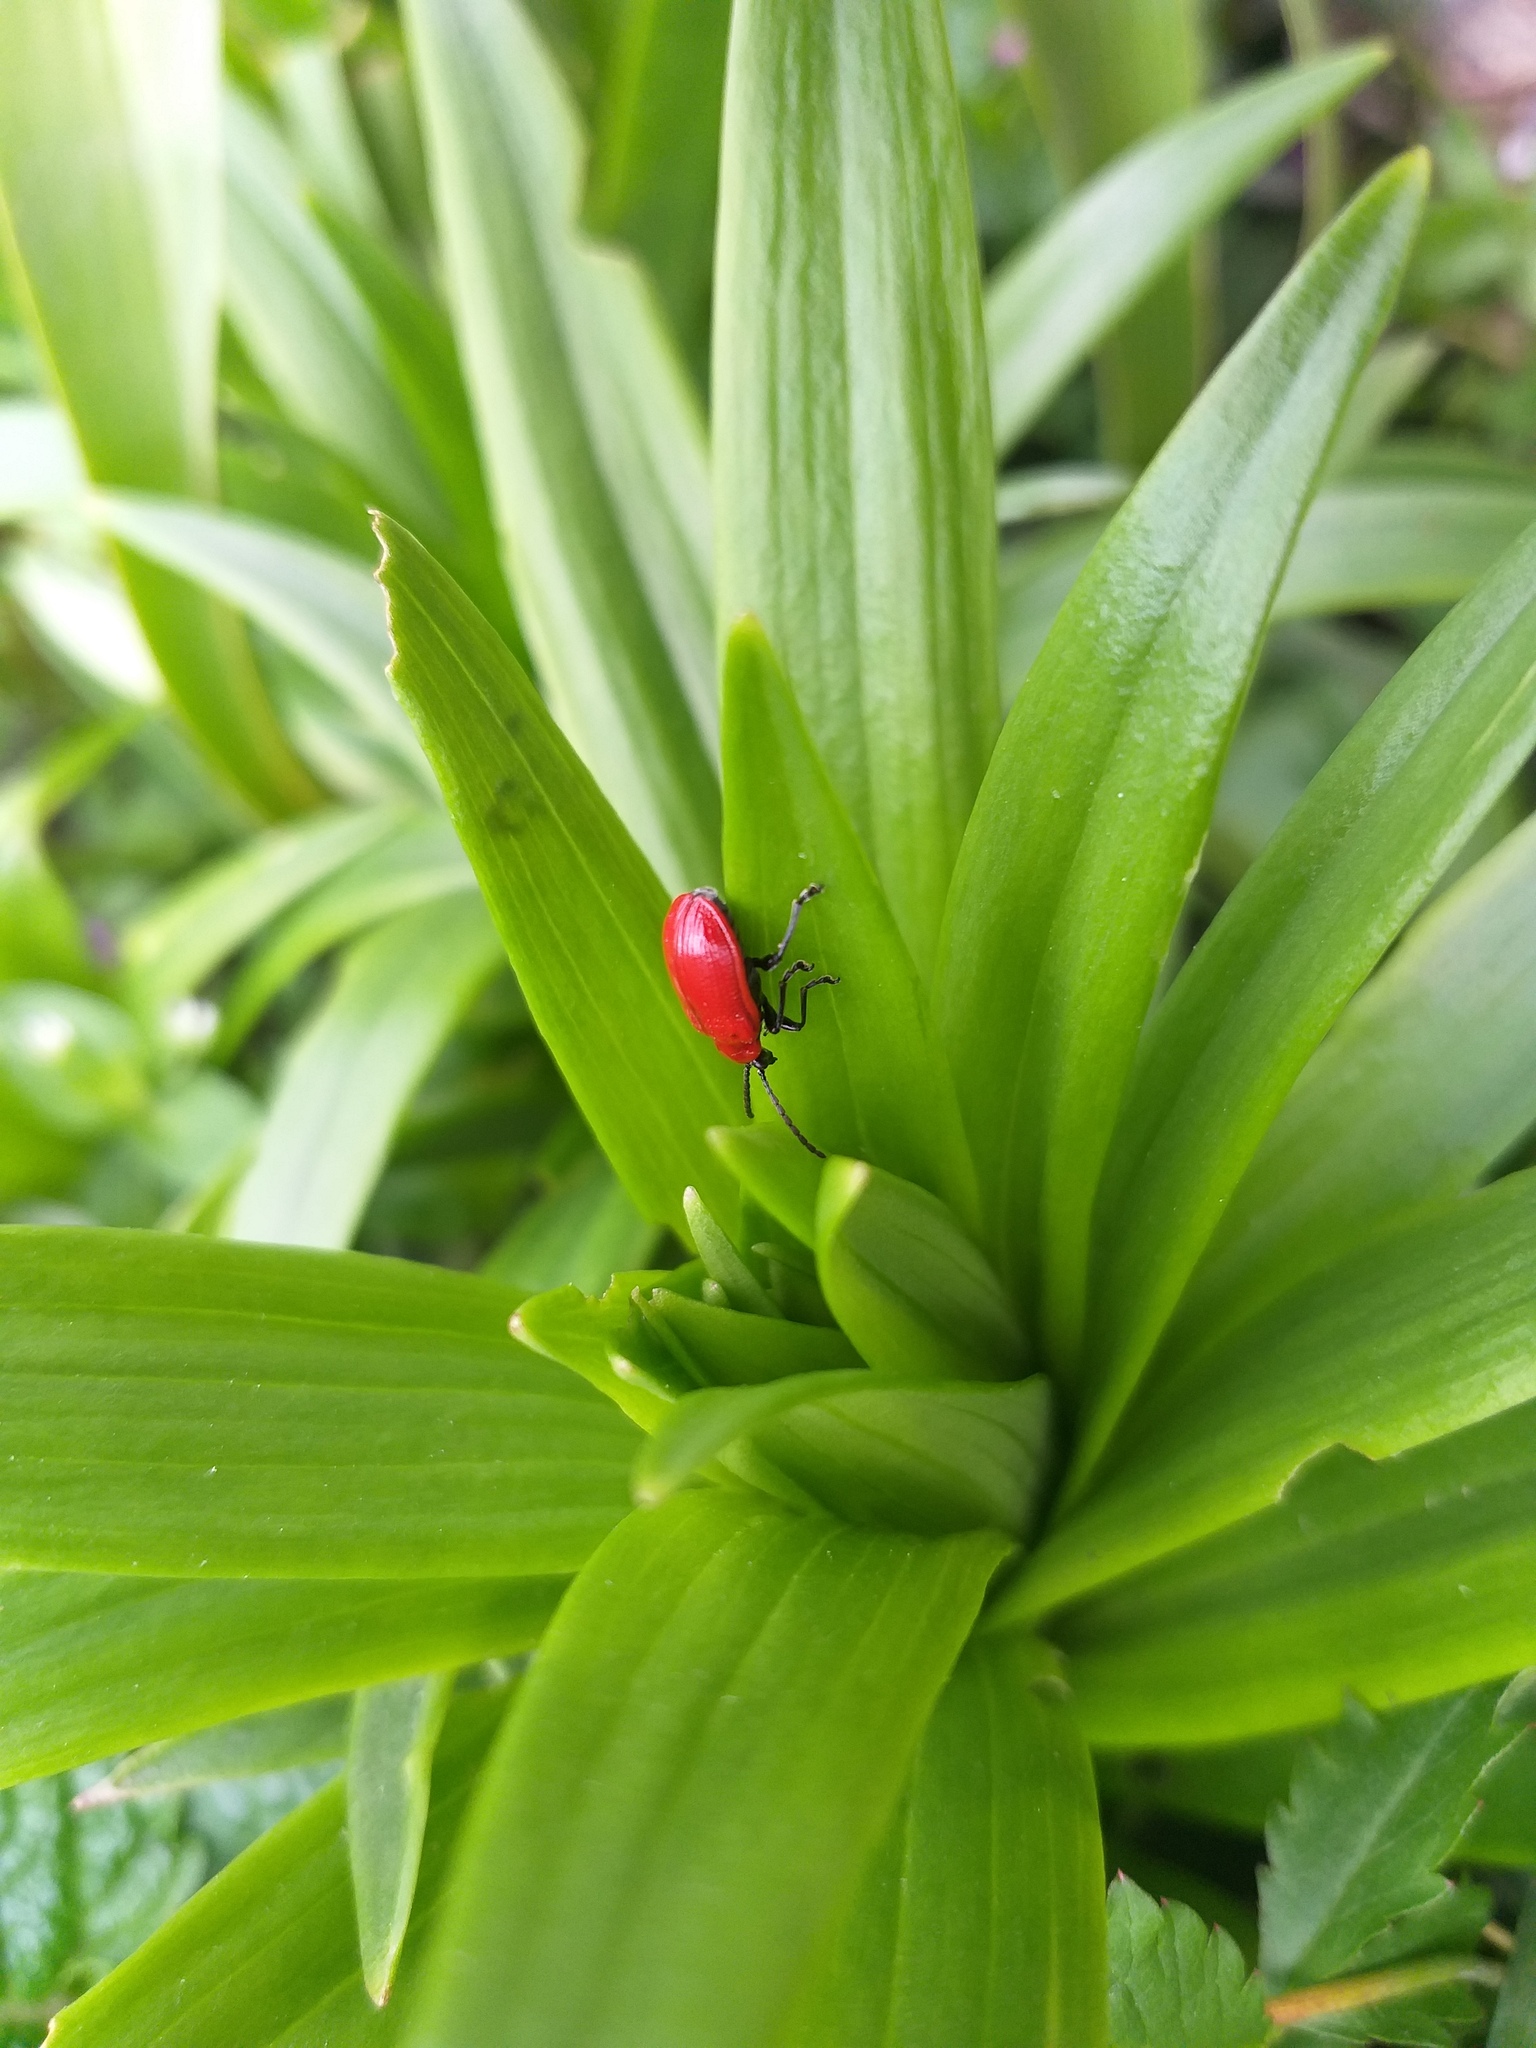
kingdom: Animalia
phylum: Arthropoda
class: Insecta
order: Coleoptera
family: Chrysomelidae
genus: Lilioceris
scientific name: Lilioceris lilii
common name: Lily beetle
